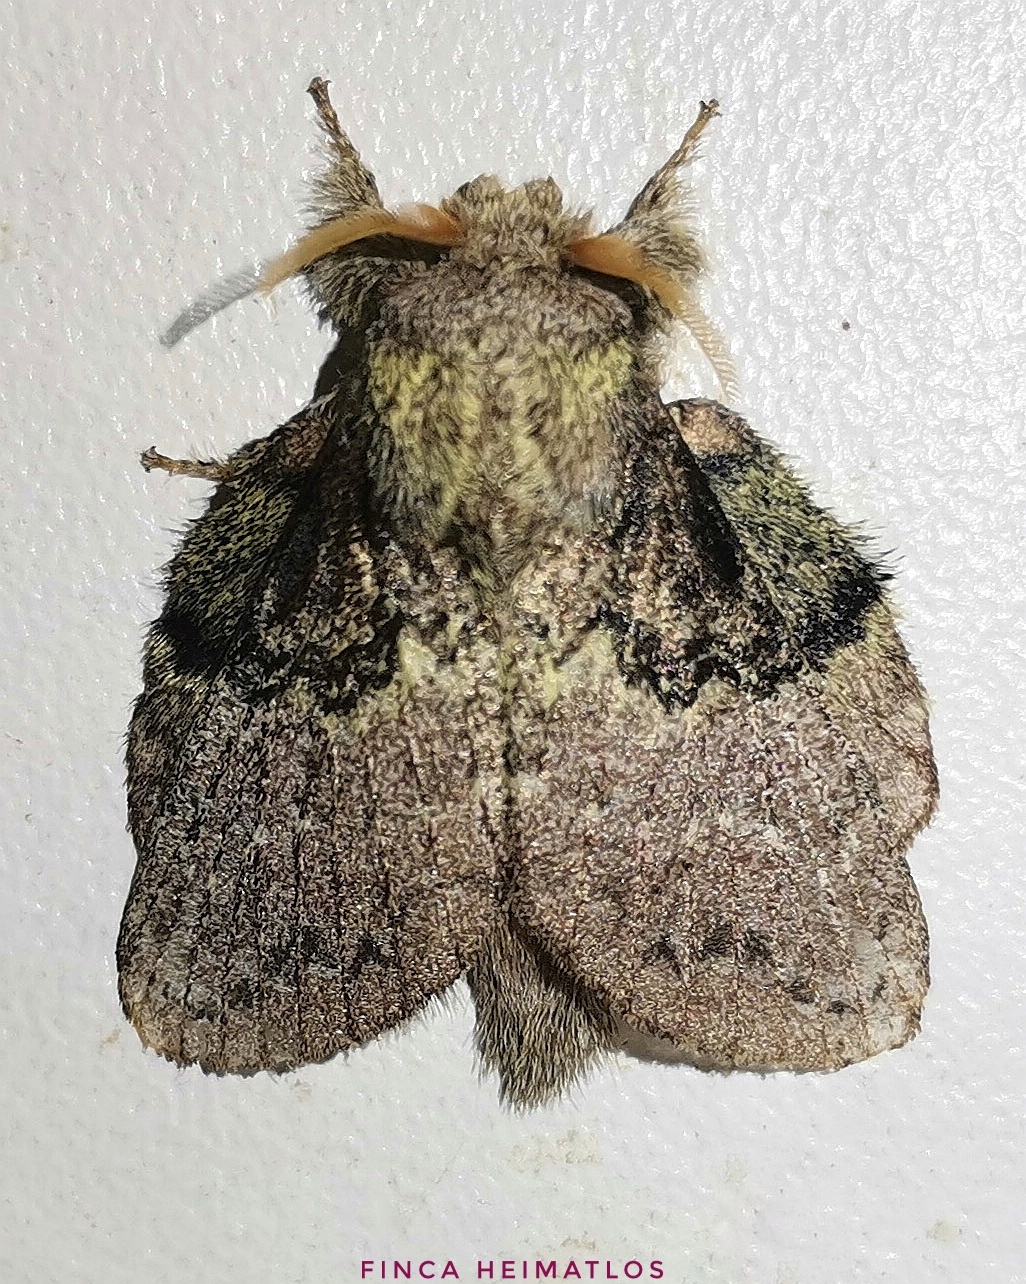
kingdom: Animalia
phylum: Arthropoda
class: Insecta
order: Lepidoptera
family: Lasiocampidae
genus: Euglyphis
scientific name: Euglyphis tanta
